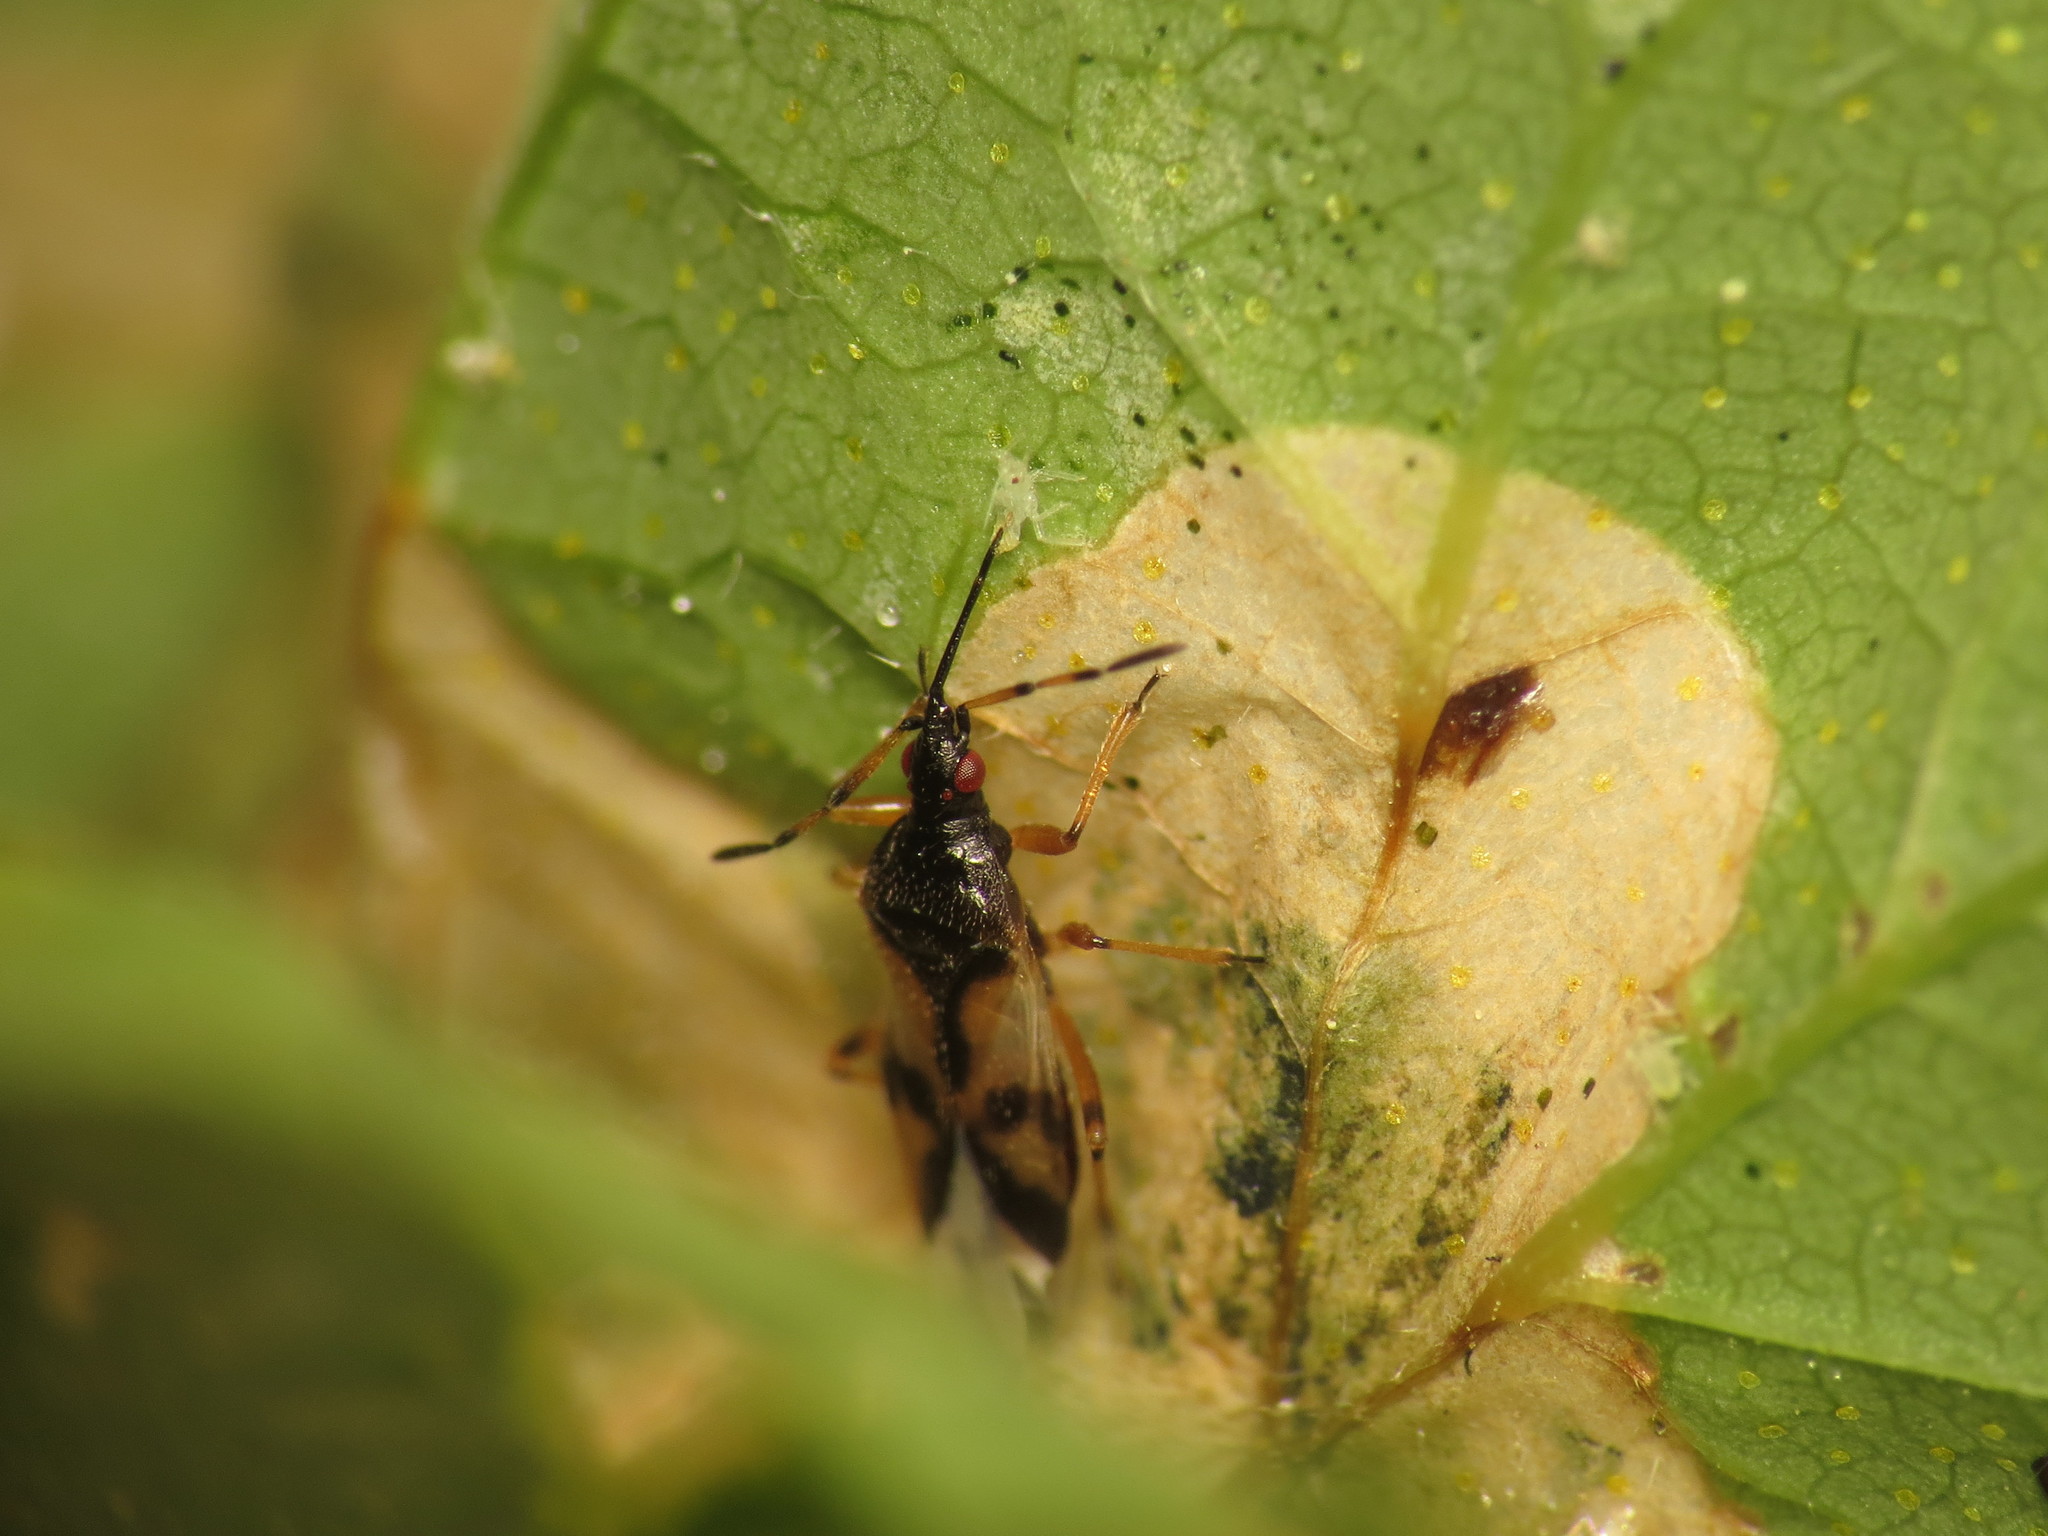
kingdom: Animalia
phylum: Arthropoda
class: Insecta
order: Hemiptera
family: Anthocoridae
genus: Anthocoris
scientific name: Anthocoris nemorum
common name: Minute pirate bug
